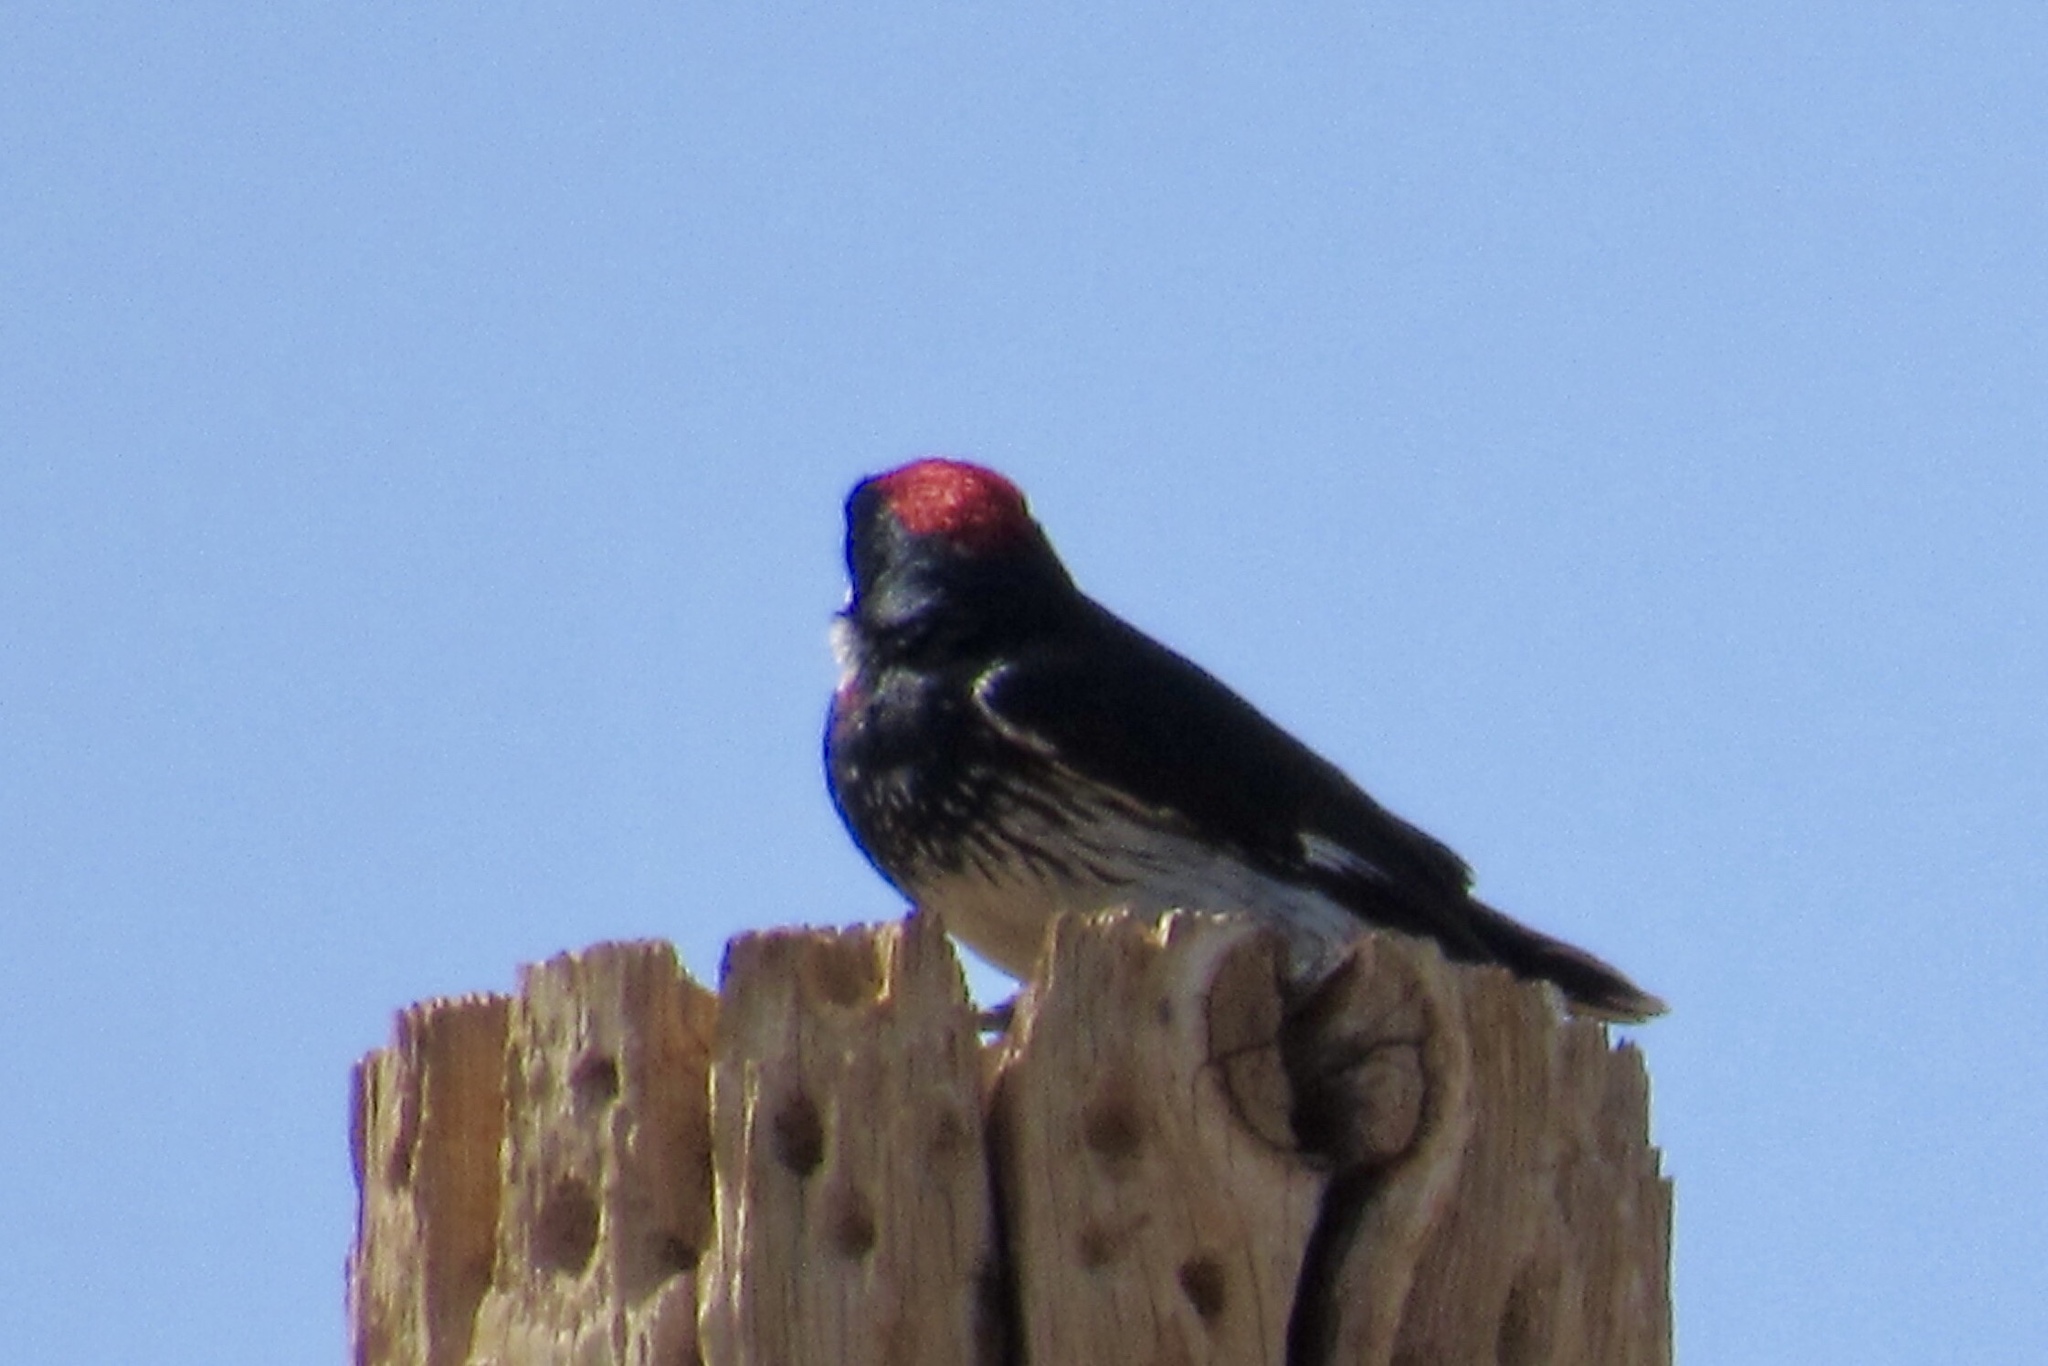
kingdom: Animalia
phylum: Chordata
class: Aves
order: Piciformes
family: Picidae
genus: Melanerpes
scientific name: Melanerpes formicivorus
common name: Acorn woodpecker
